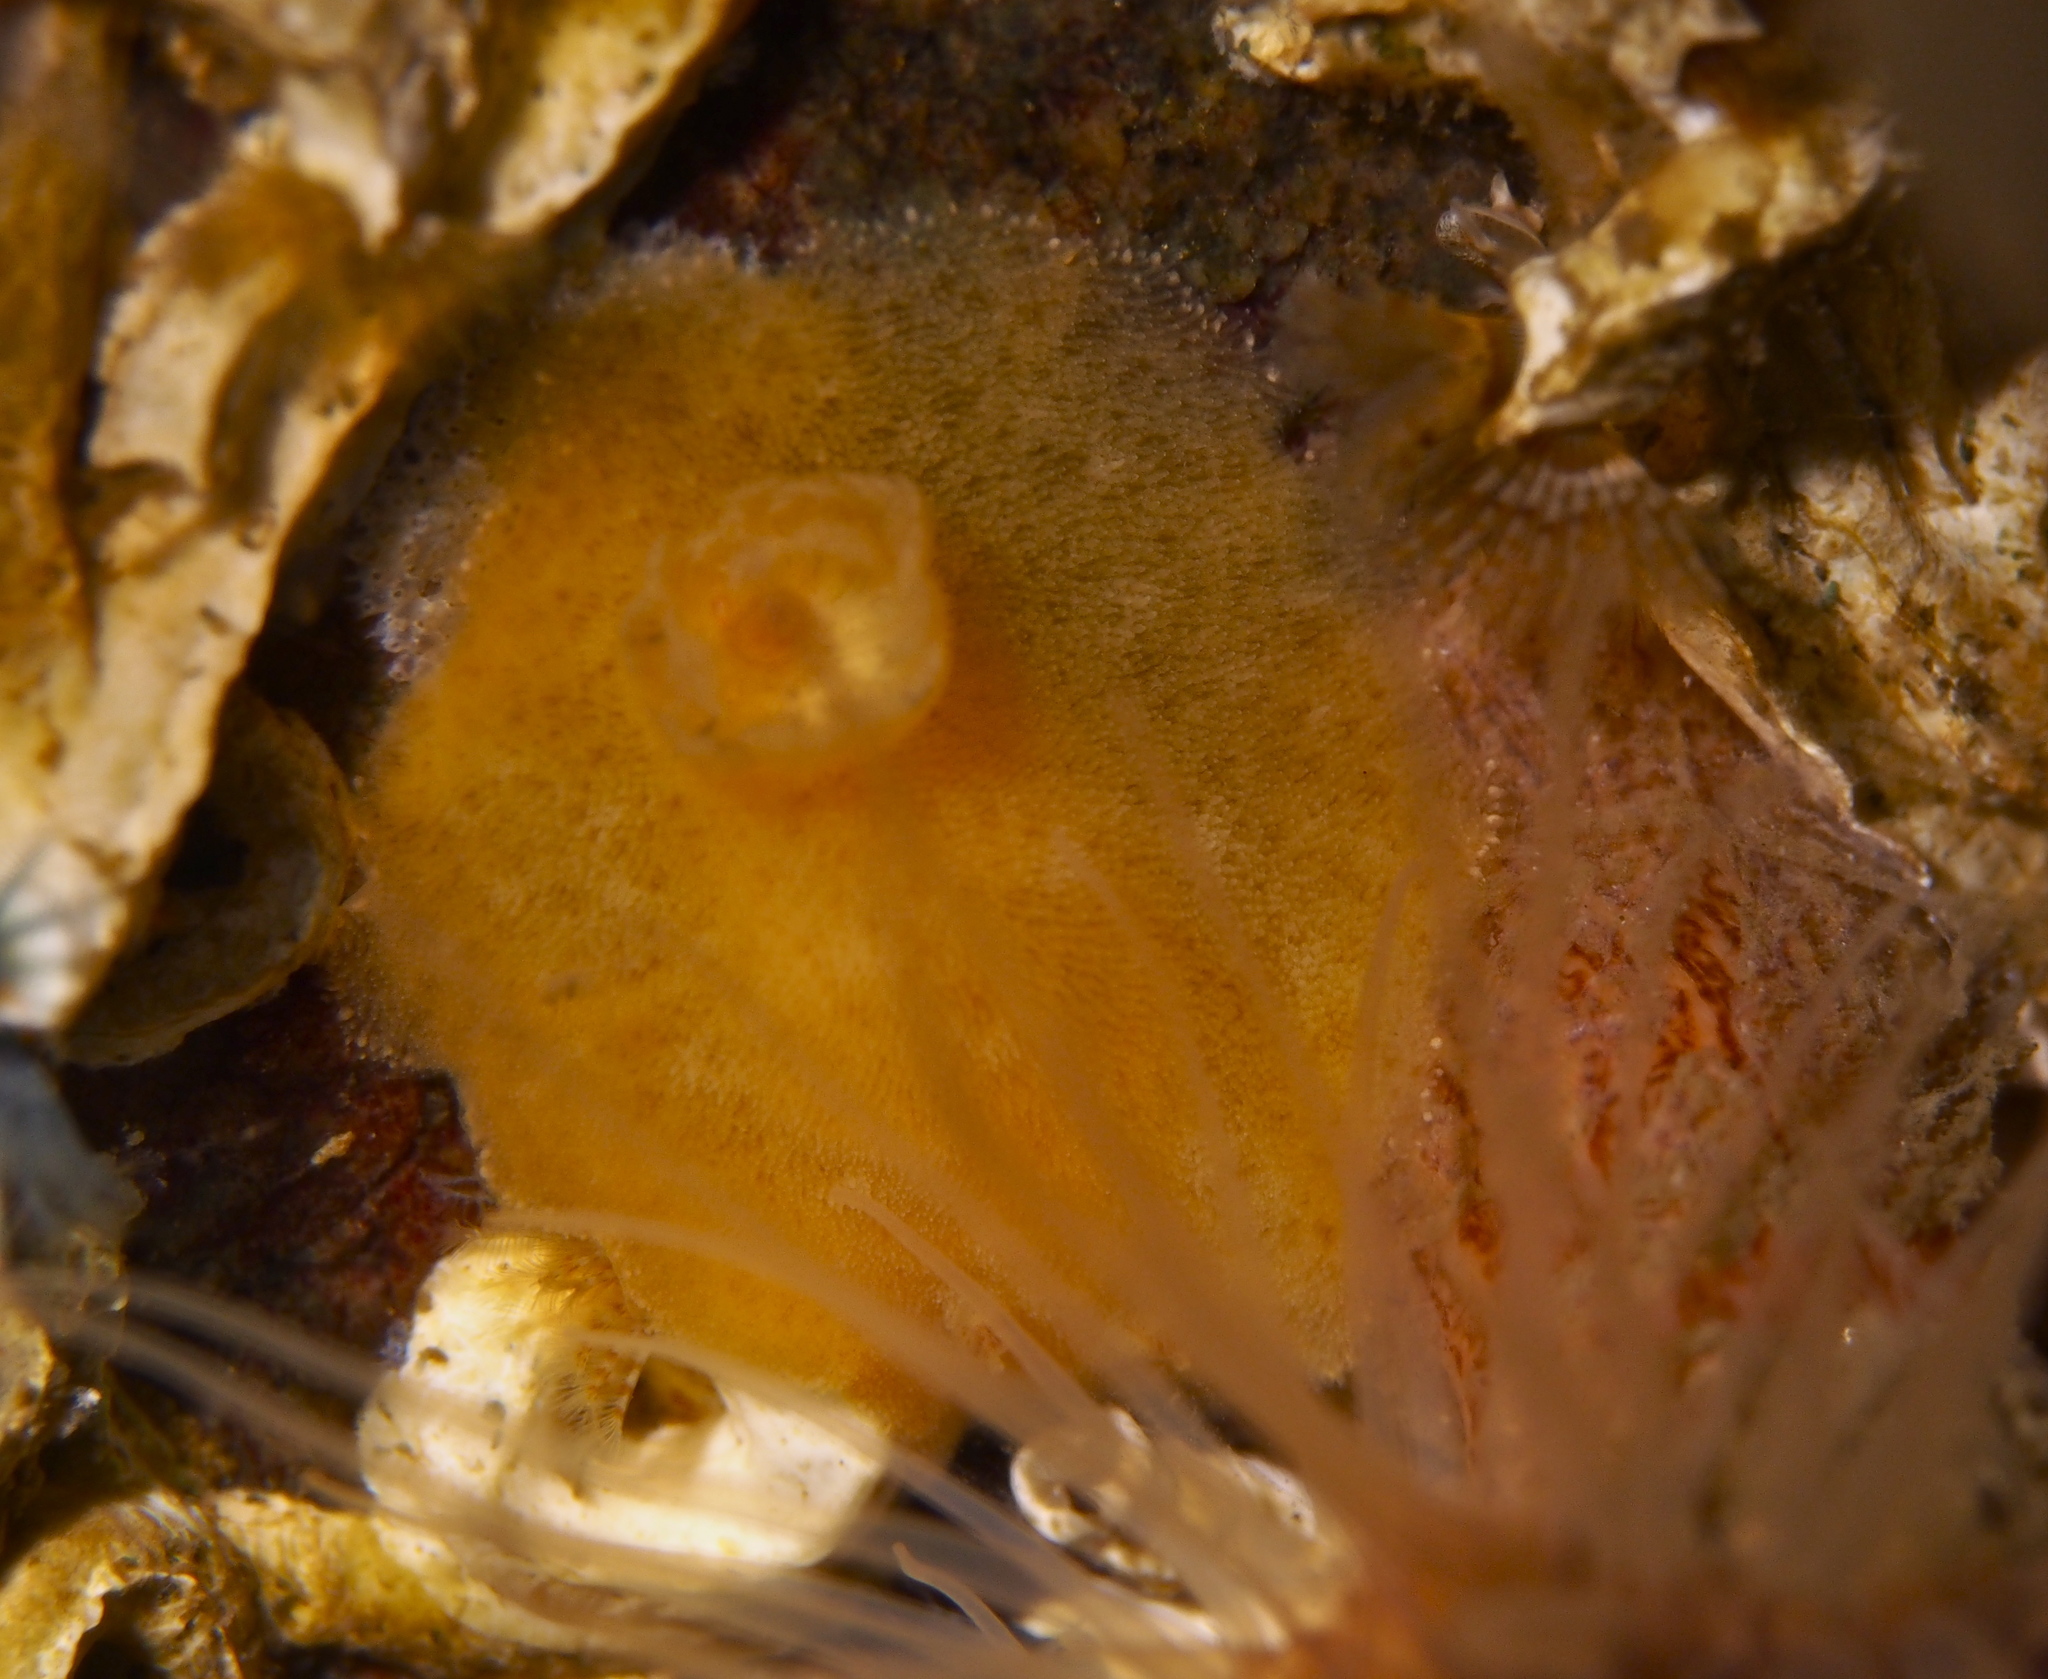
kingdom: Animalia
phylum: Mollusca
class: Gastropoda
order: Nudibranchia
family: Discodorididae
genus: Jorunna
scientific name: Jorunna tomentosa
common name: Grey sea slug
